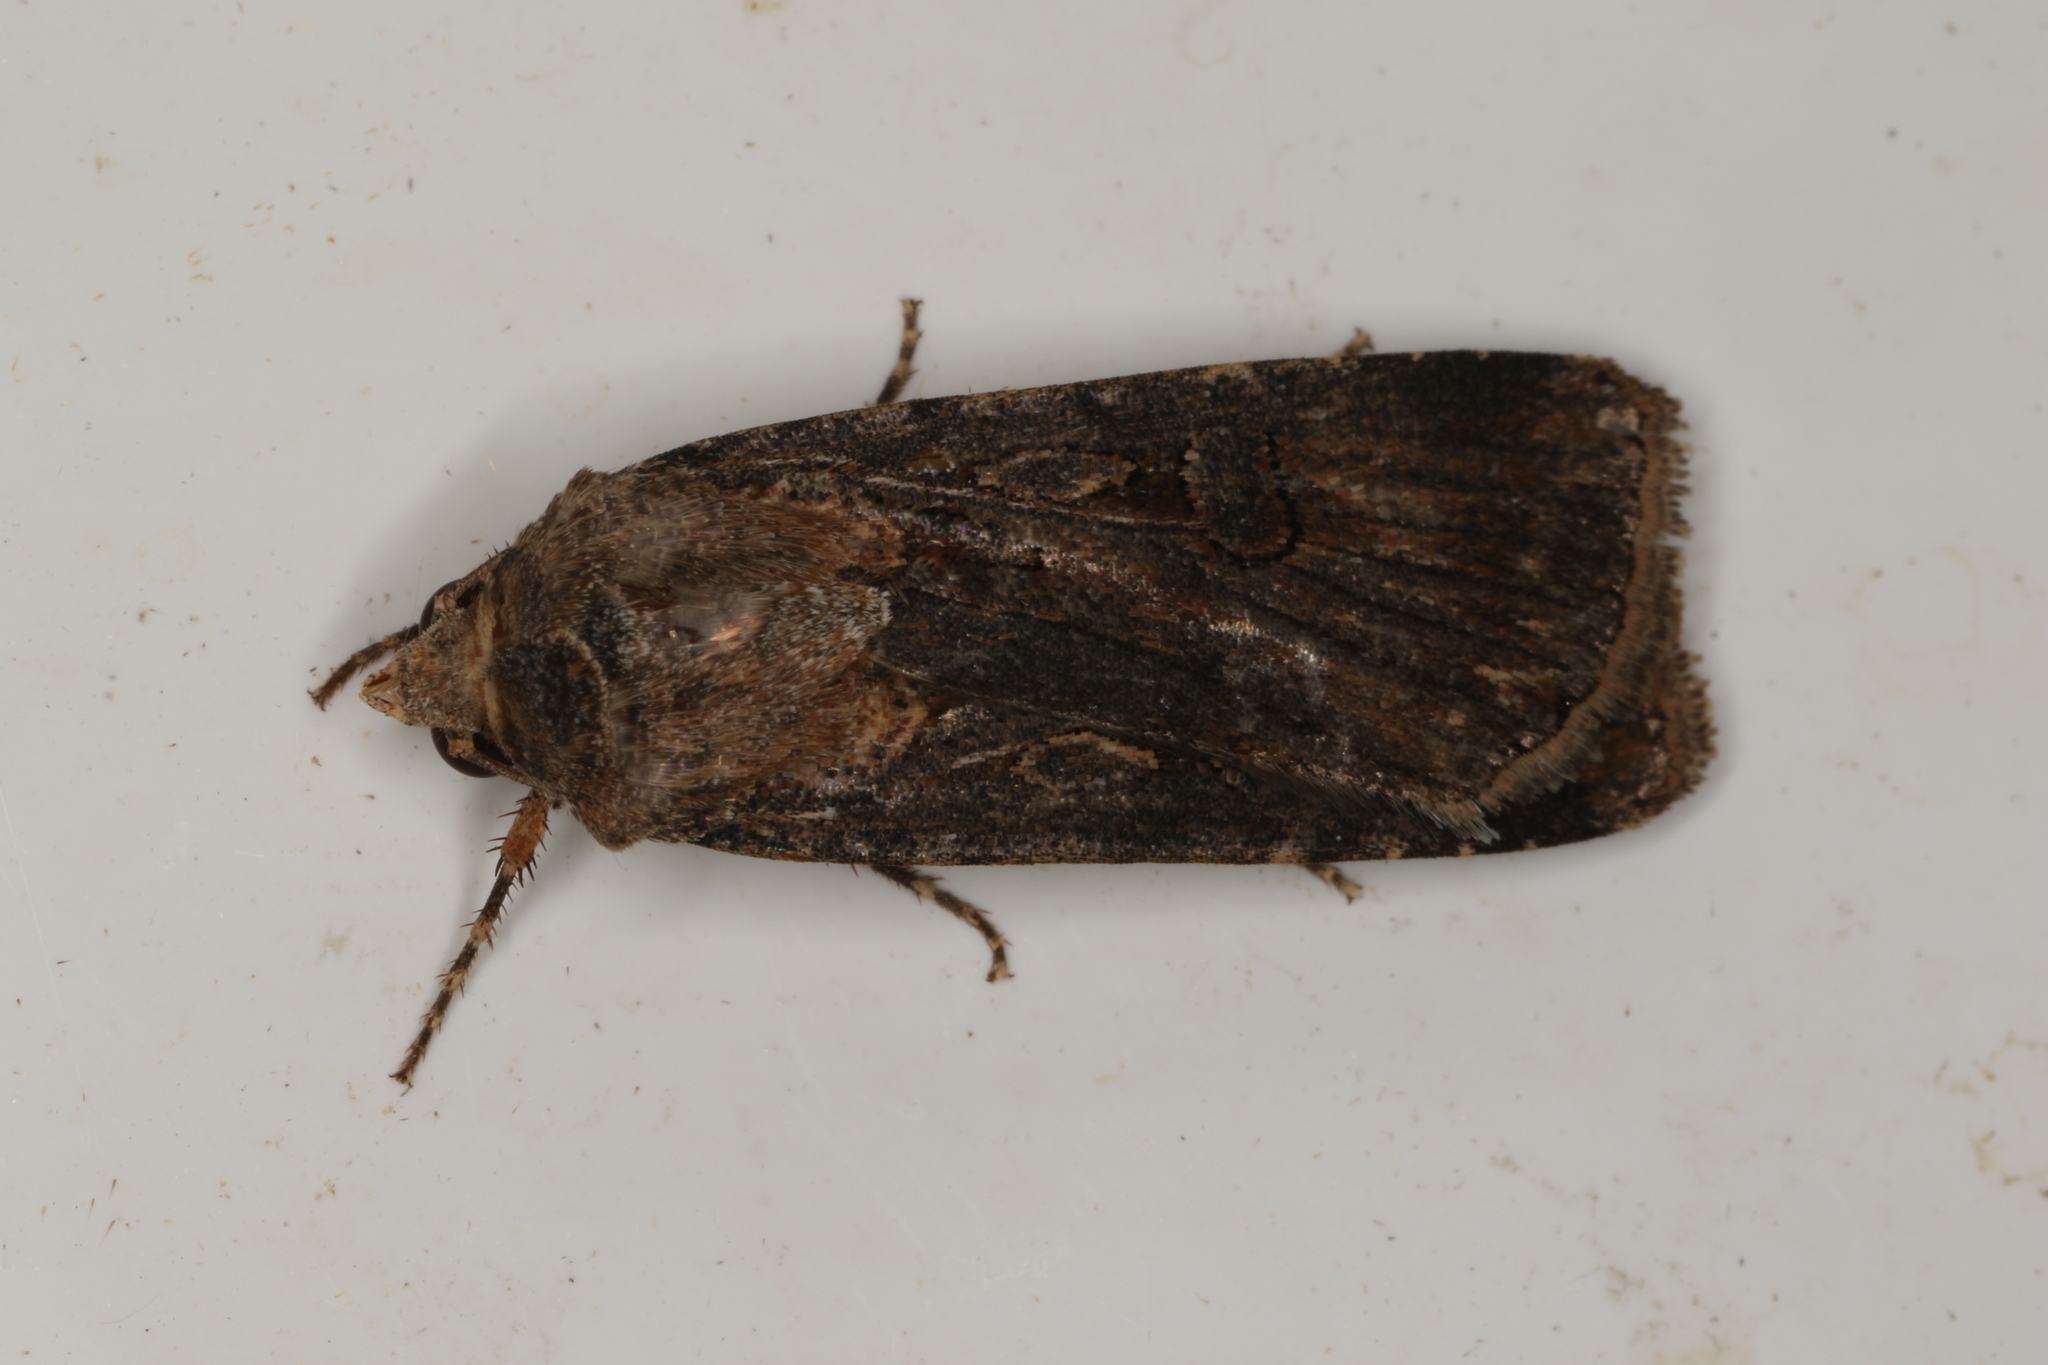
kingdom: Animalia
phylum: Arthropoda
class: Insecta
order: Lepidoptera
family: Noctuidae
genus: Agrotis
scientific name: Agrotis infusa
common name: Bogong moth
